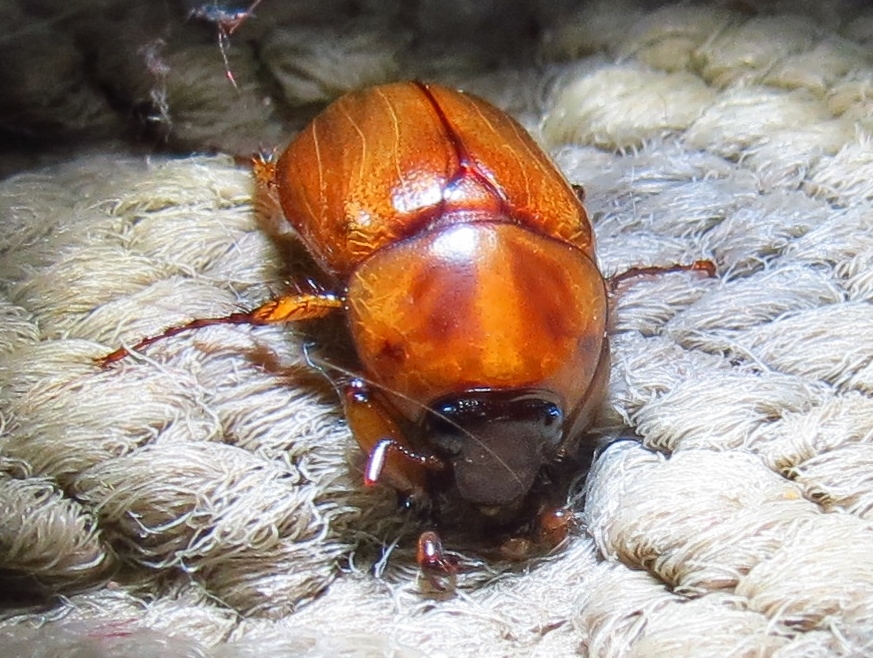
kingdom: Animalia
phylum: Arthropoda
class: Insecta
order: Coleoptera
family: Scarabaeidae
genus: Cyclocephala
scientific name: Cyclocephala tridentata
